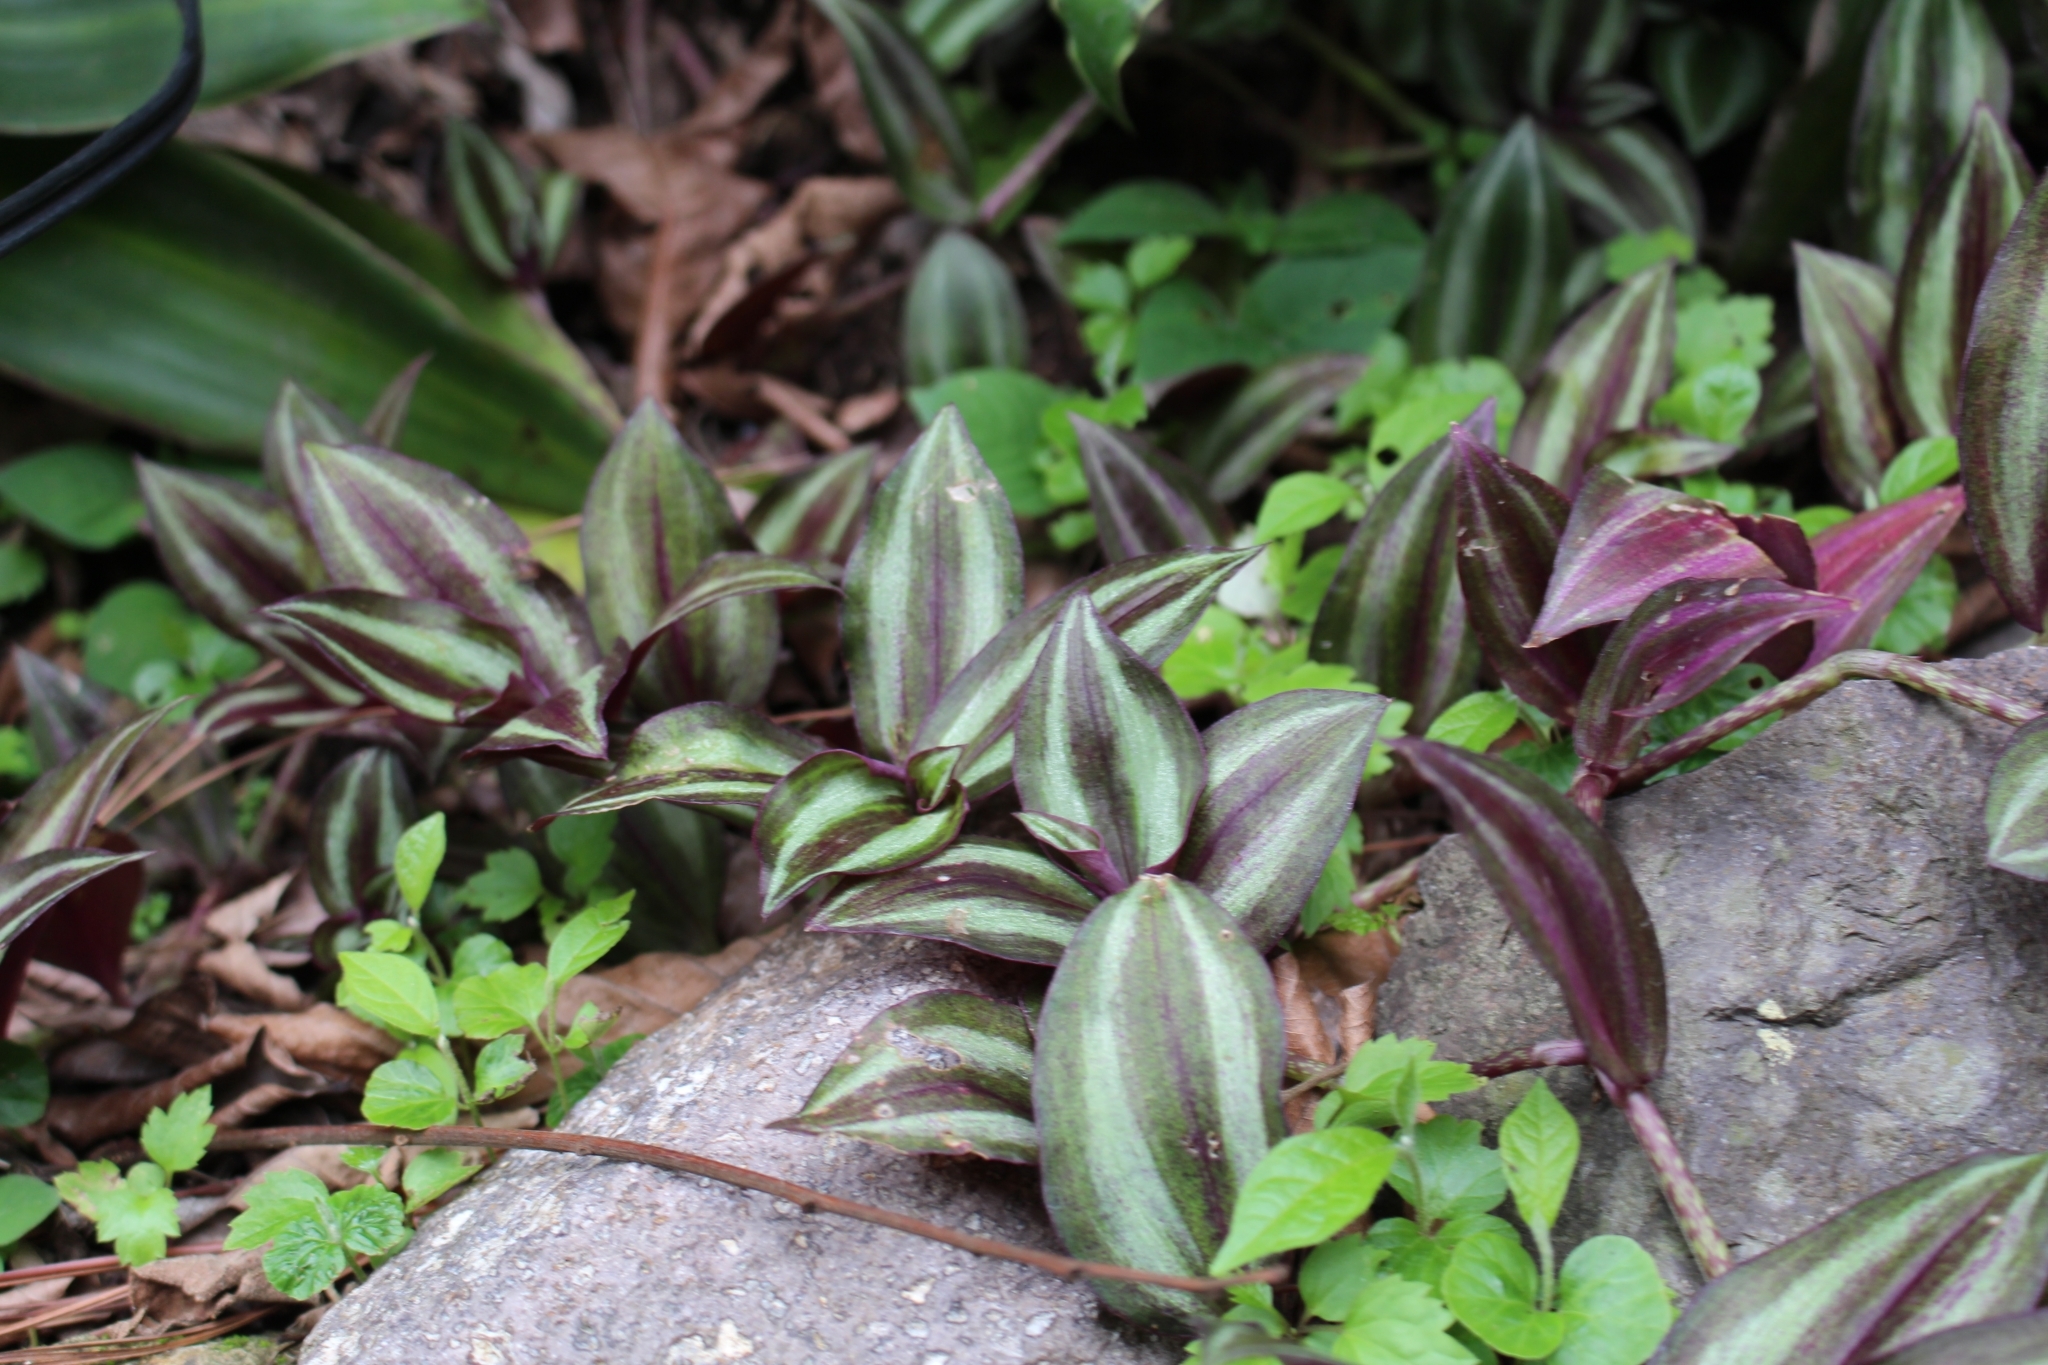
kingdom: Plantae
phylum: Tracheophyta
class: Liliopsida
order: Commelinales
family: Commelinaceae
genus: Tradescantia
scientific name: Tradescantia zebrina
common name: Inchplant
